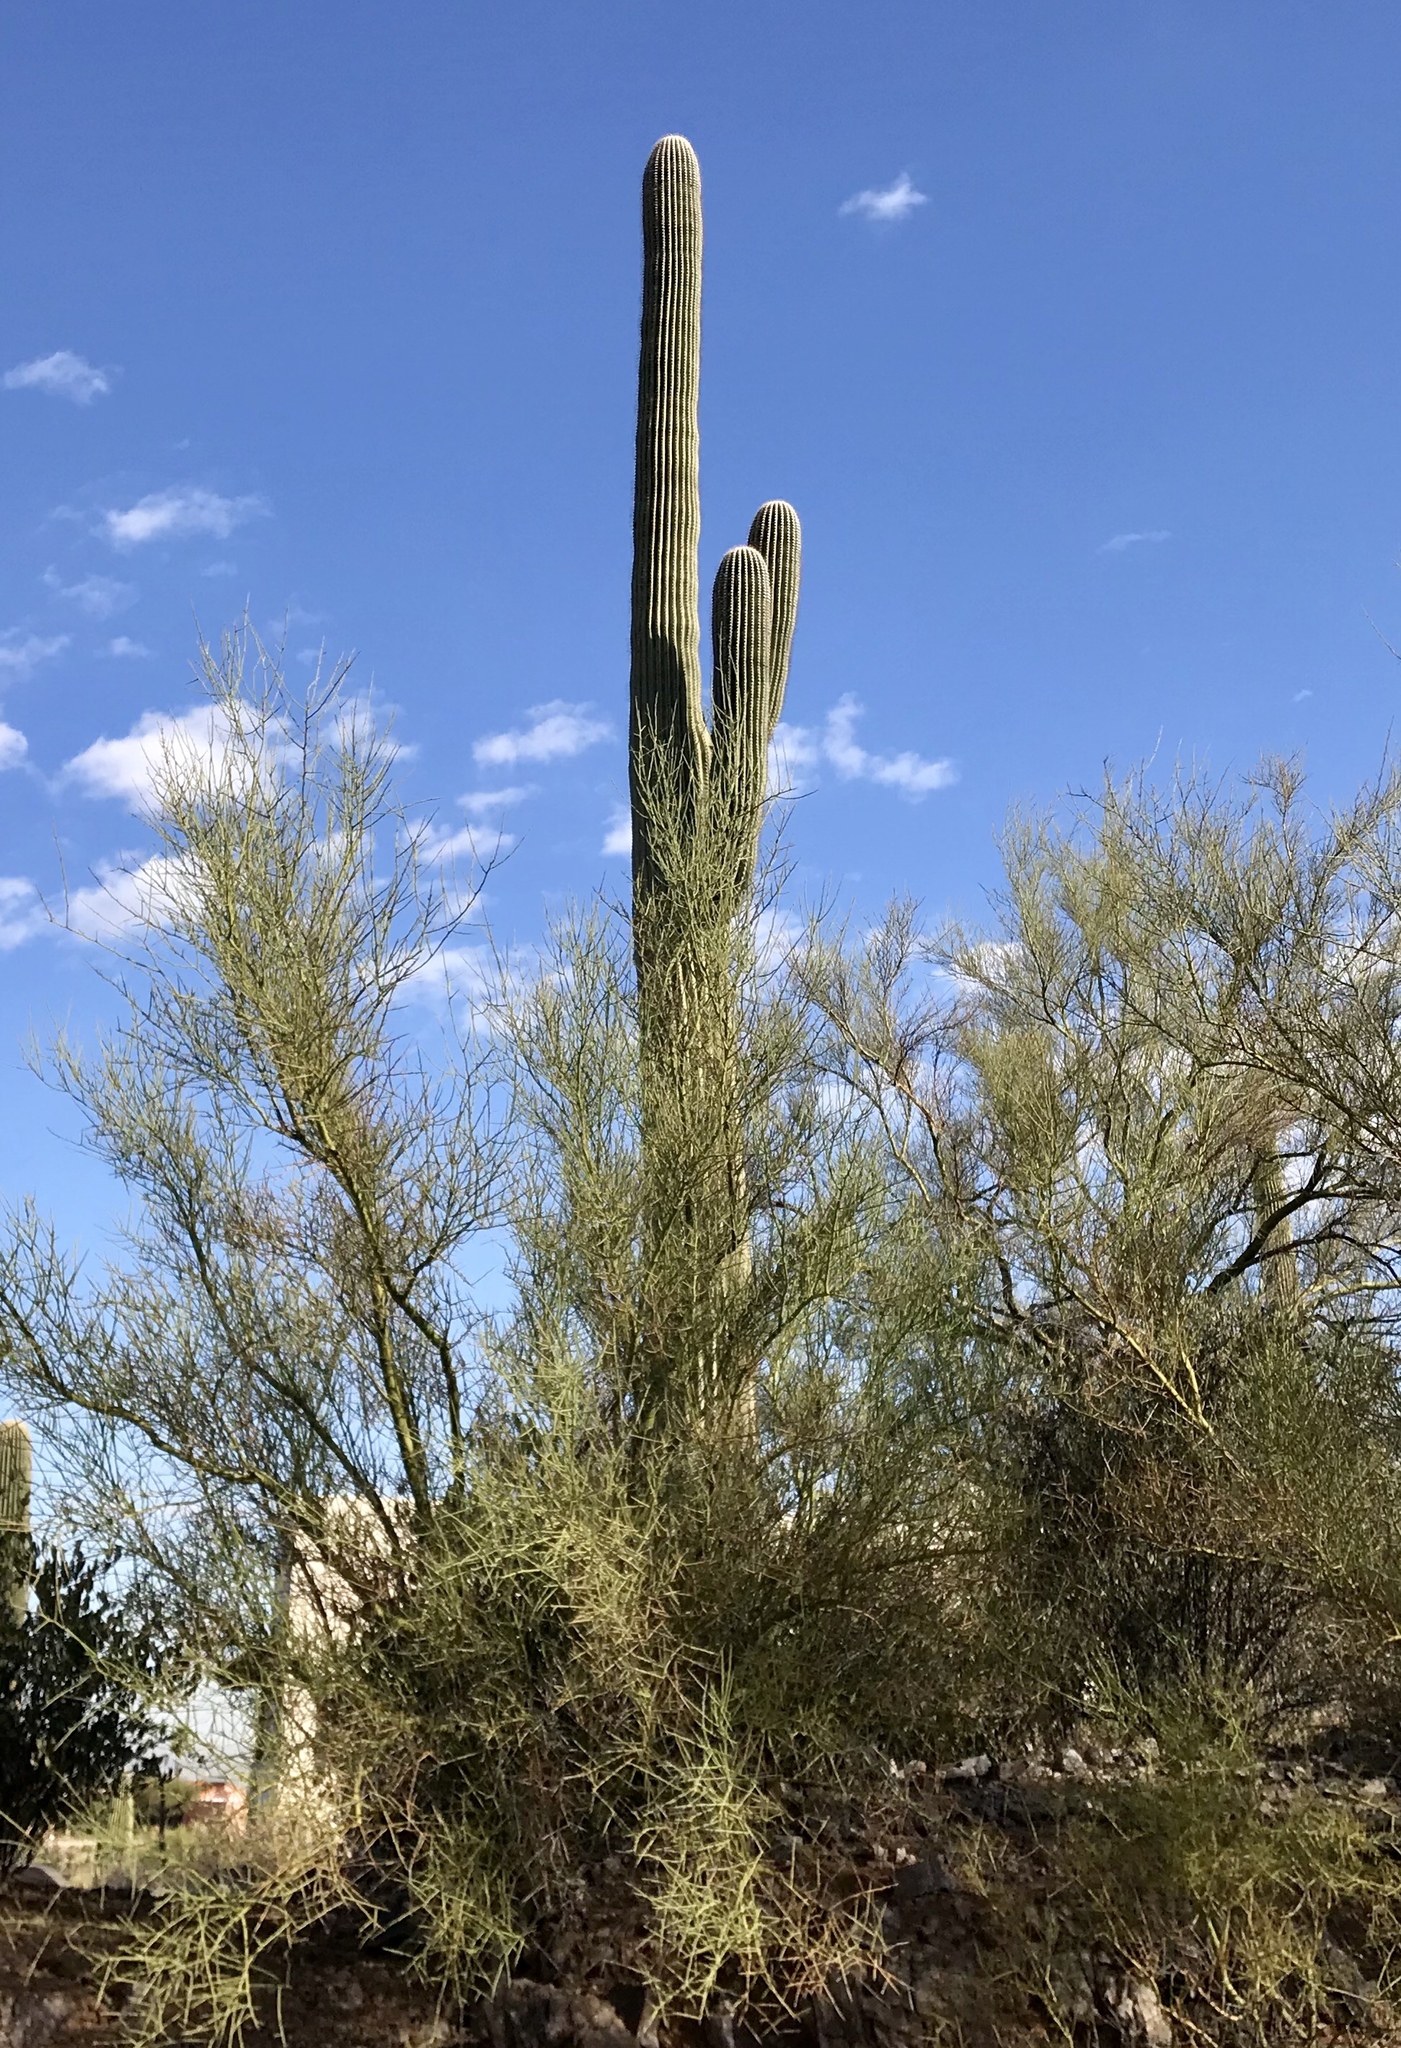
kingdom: Plantae
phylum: Tracheophyta
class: Magnoliopsida
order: Caryophyllales
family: Cactaceae
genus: Carnegiea
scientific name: Carnegiea gigantea
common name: Saguaro
